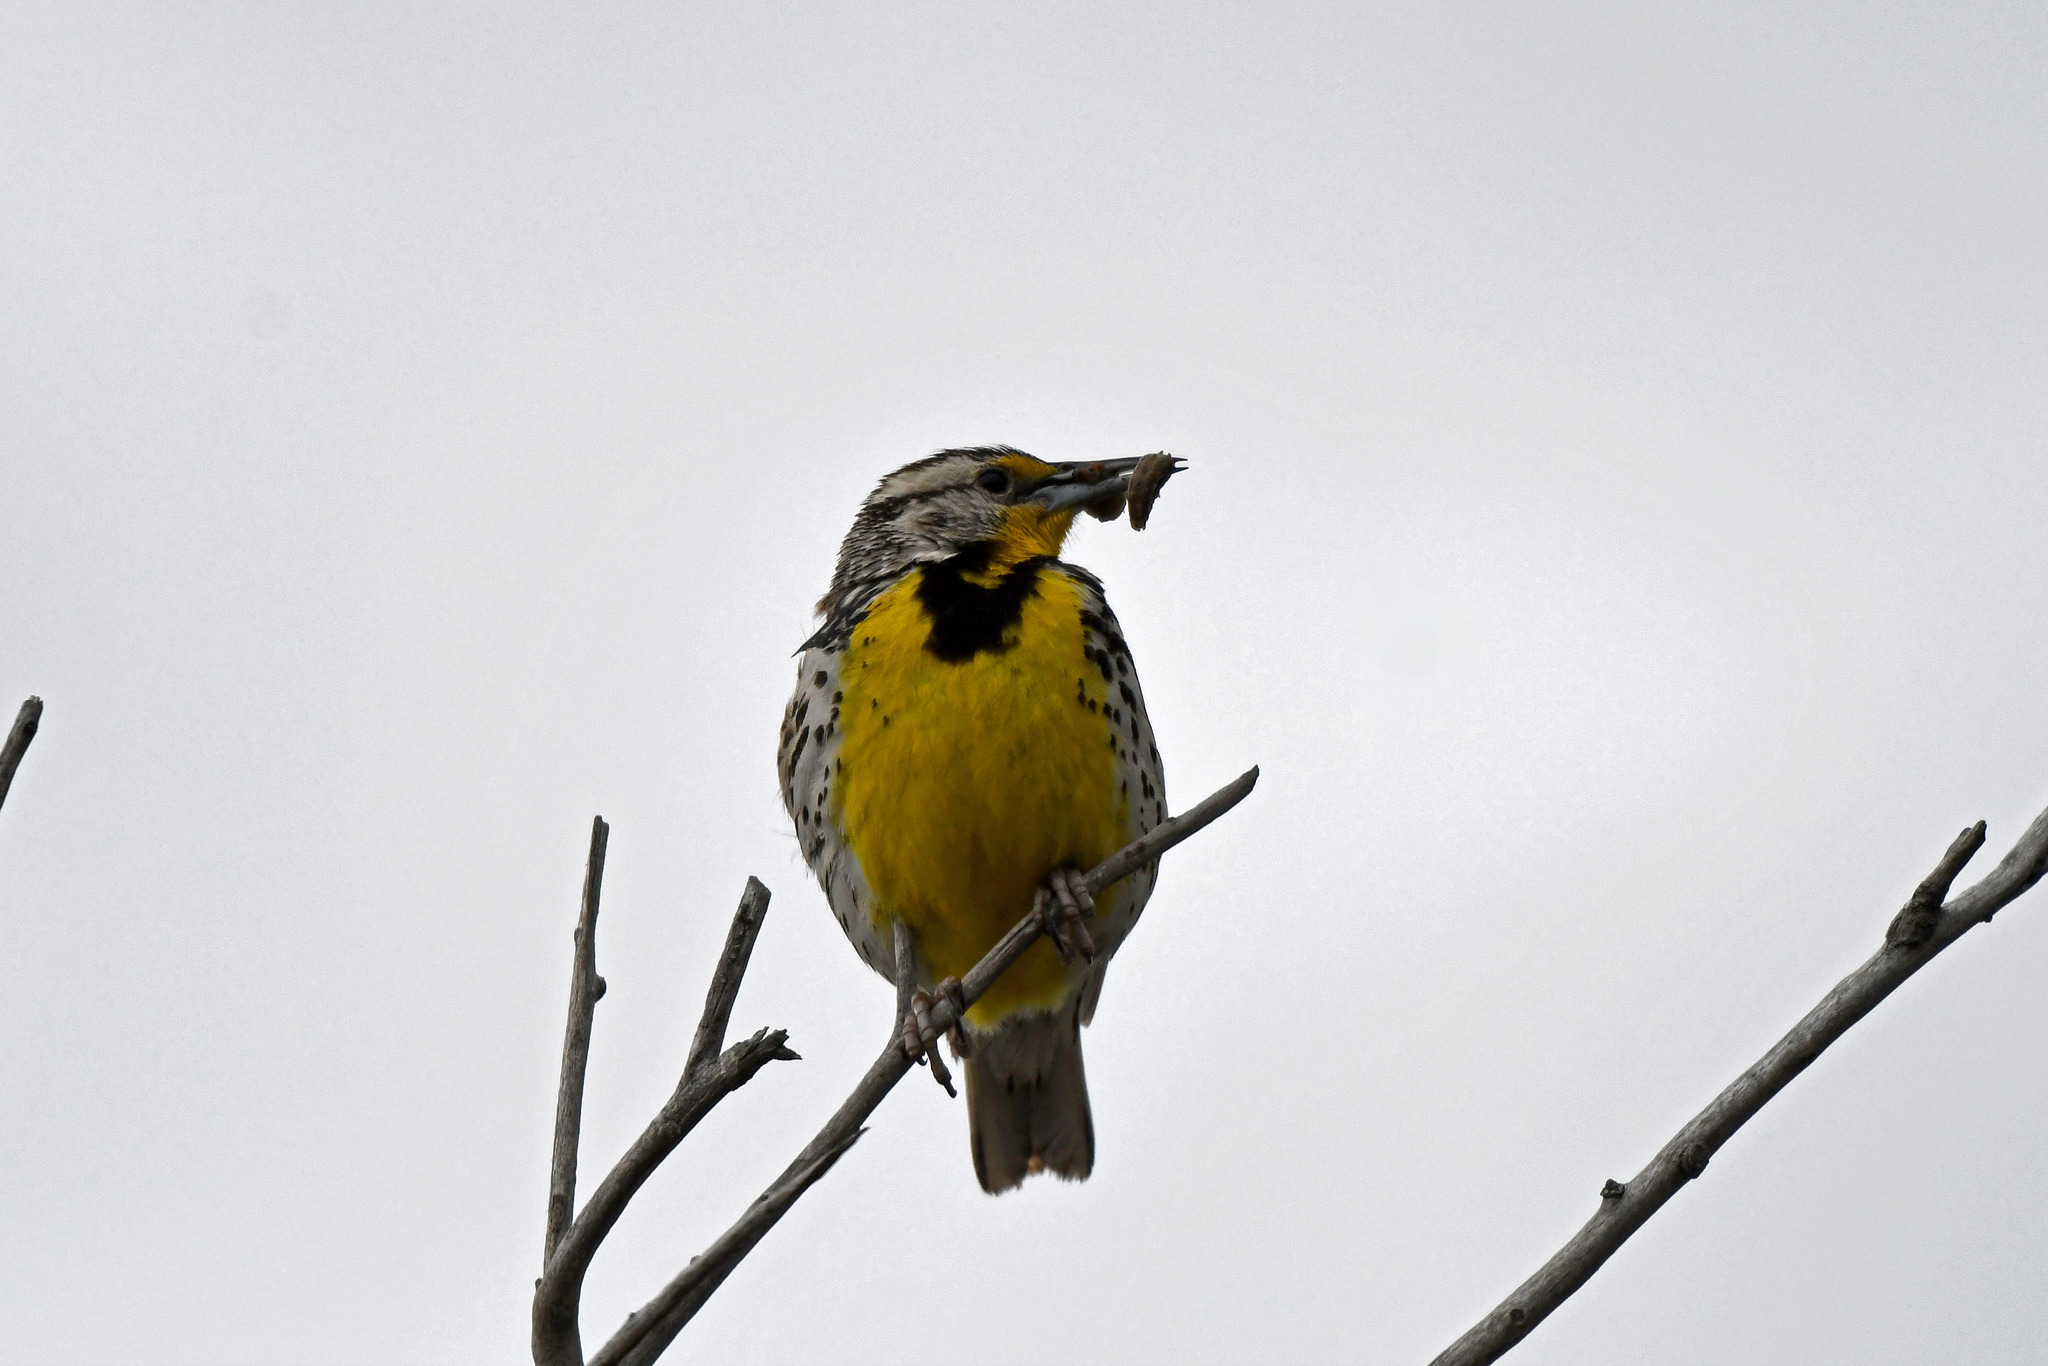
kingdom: Animalia
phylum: Chordata
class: Aves
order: Passeriformes
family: Icteridae
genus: Sturnella
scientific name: Sturnella neglecta
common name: Western meadowlark
